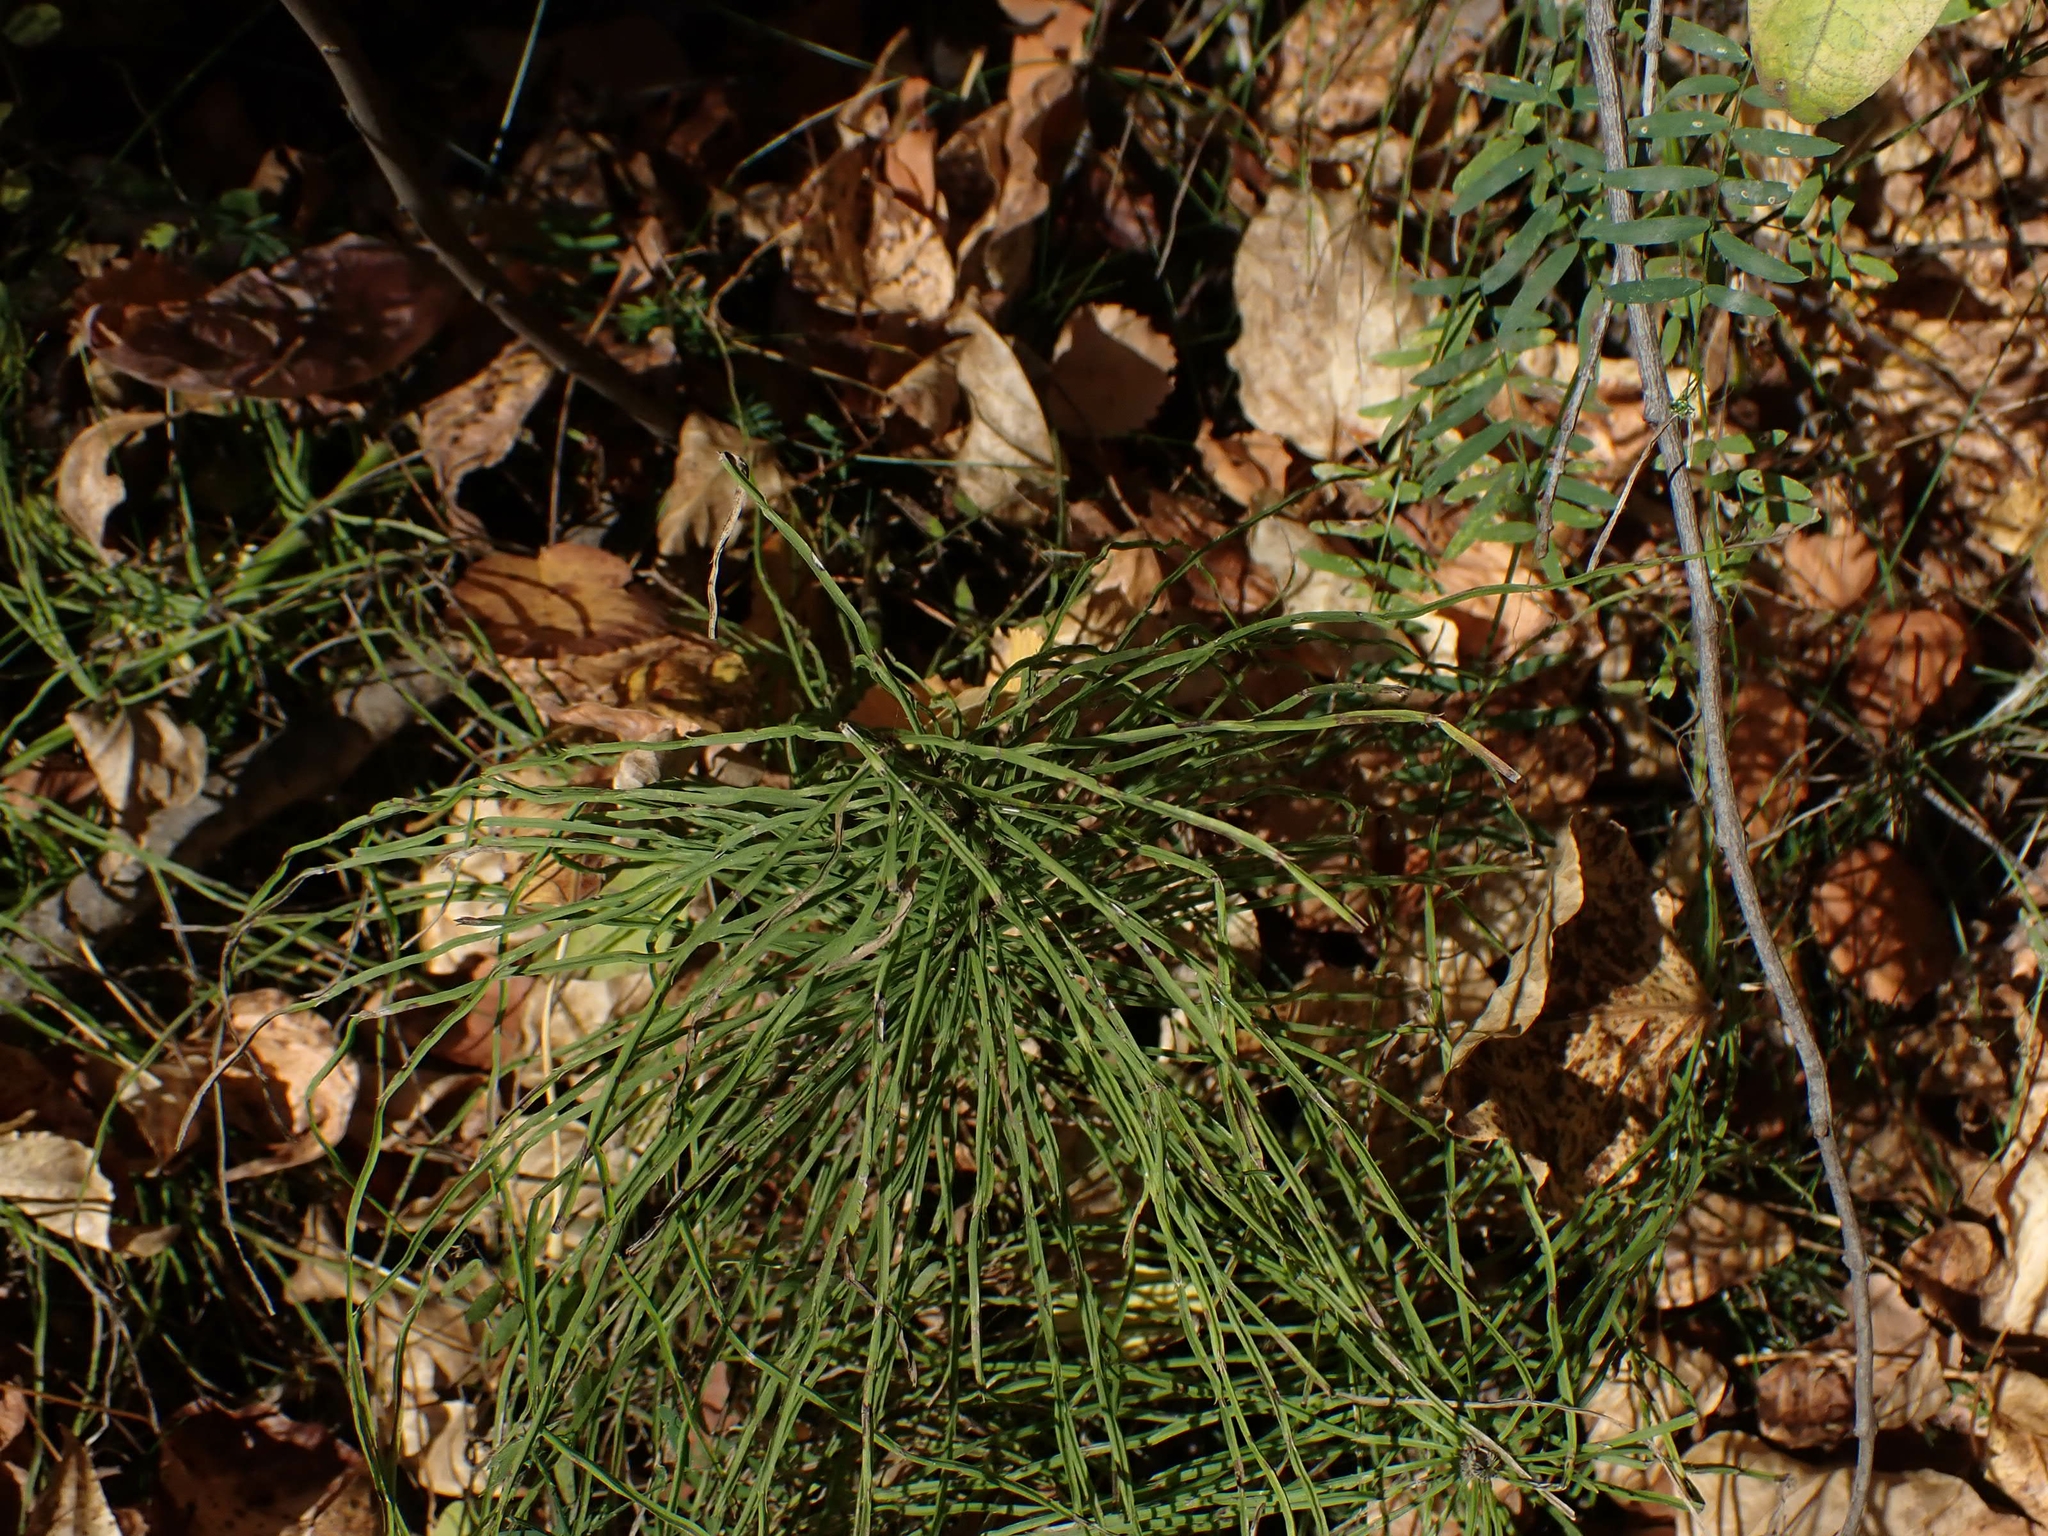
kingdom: Plantae
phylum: Tracheophyta
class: Polypodiopsida
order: Equisetales
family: Equisetaceae
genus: Equisetum
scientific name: Equisetum arvense
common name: Field horsetail
